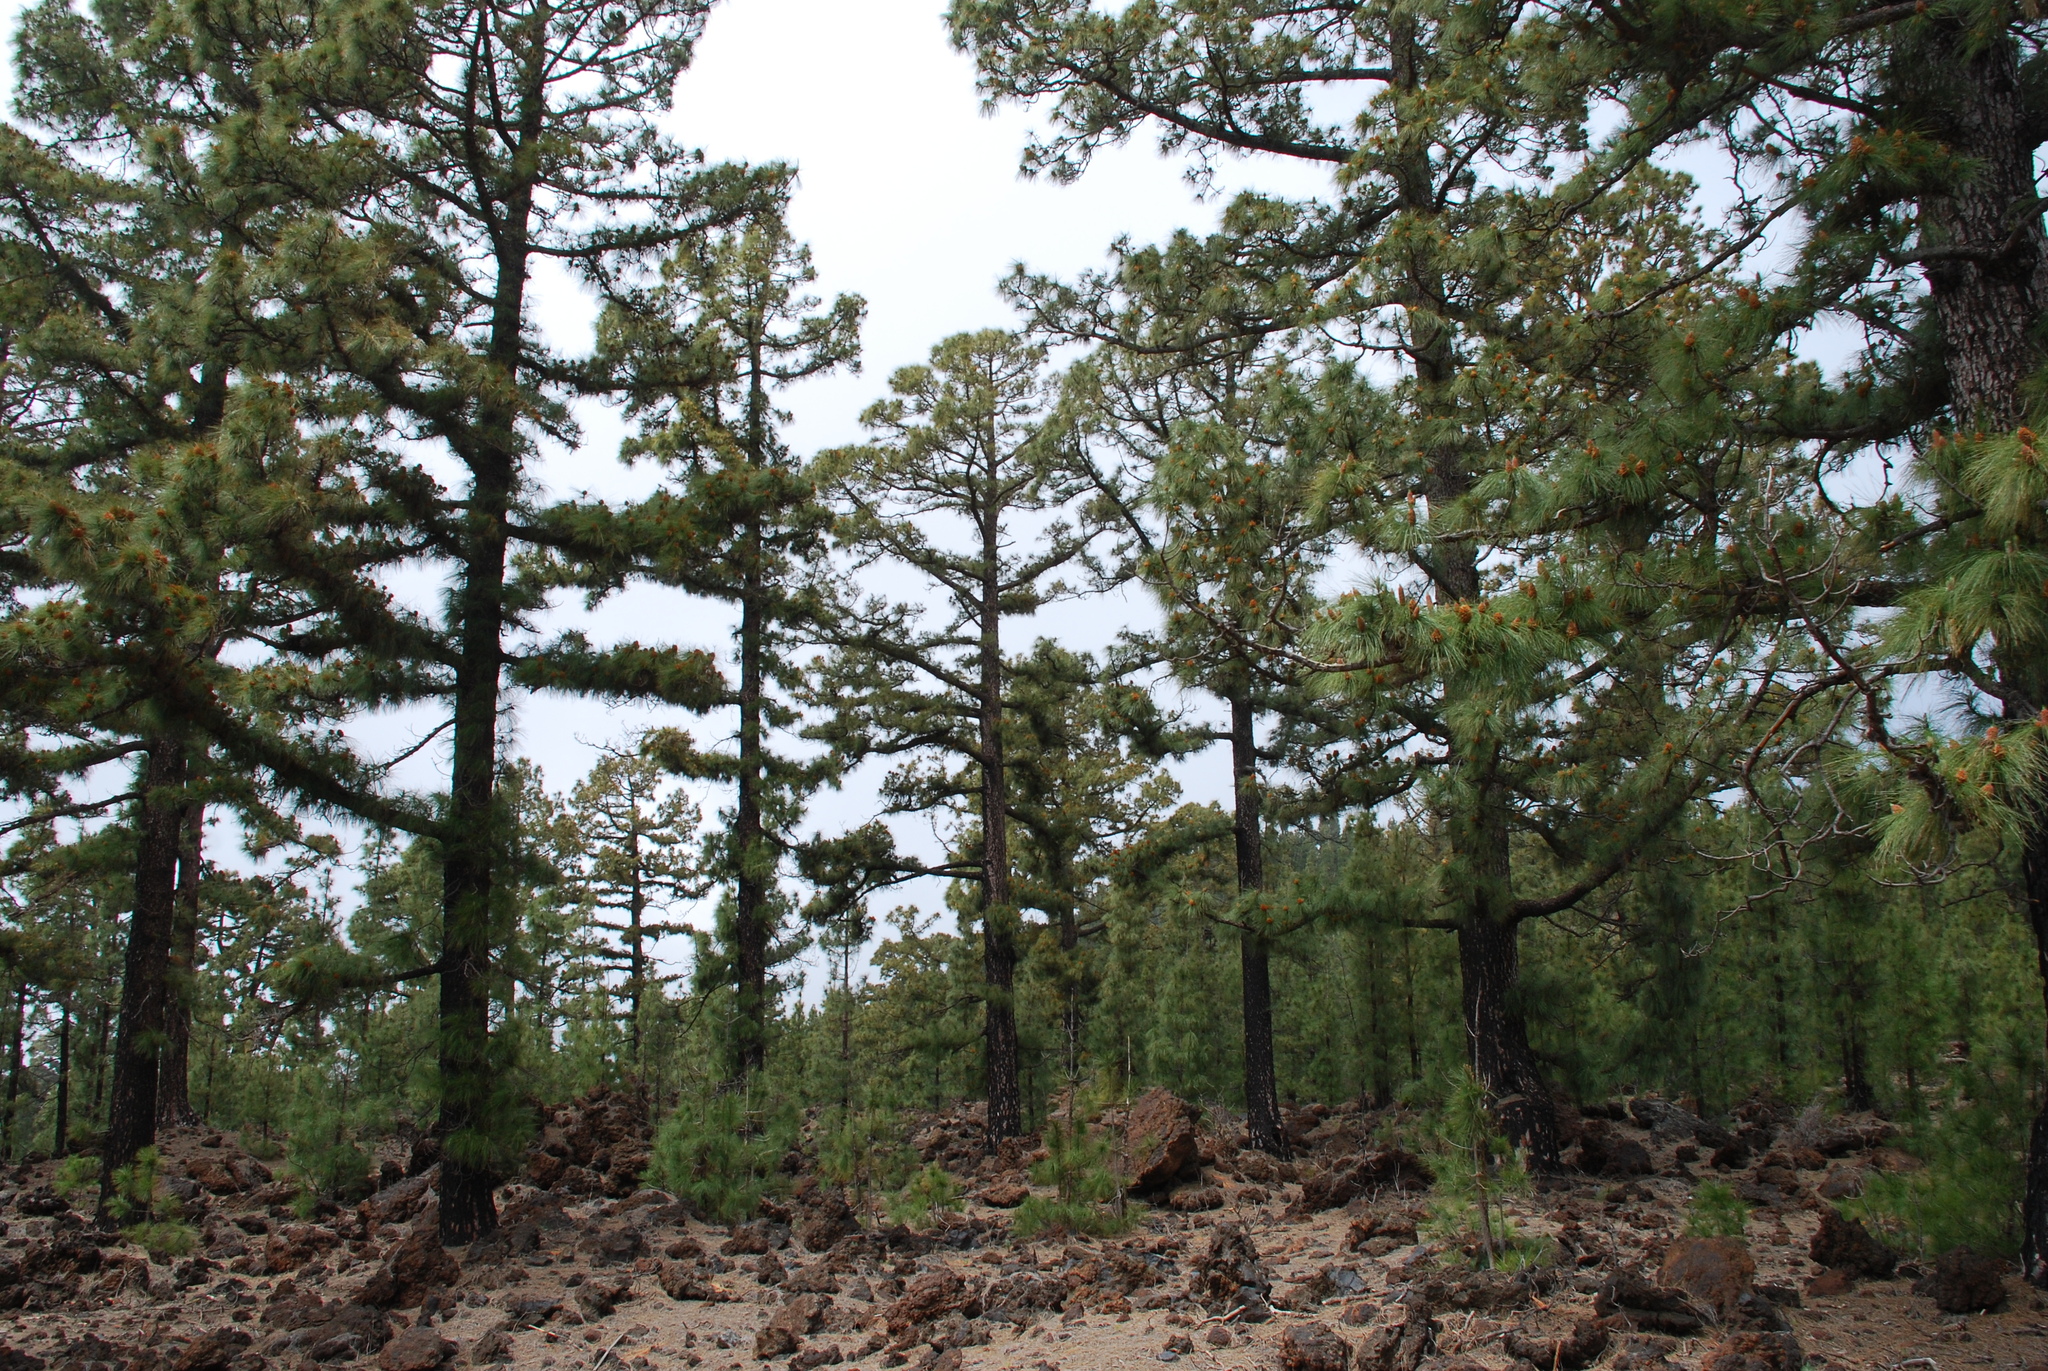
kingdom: Plantae
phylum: Tracheophyta
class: Pinopsida
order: Pinales
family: Pinaceae
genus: Pinus
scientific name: Pinus canariensis
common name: Canary islands pine
